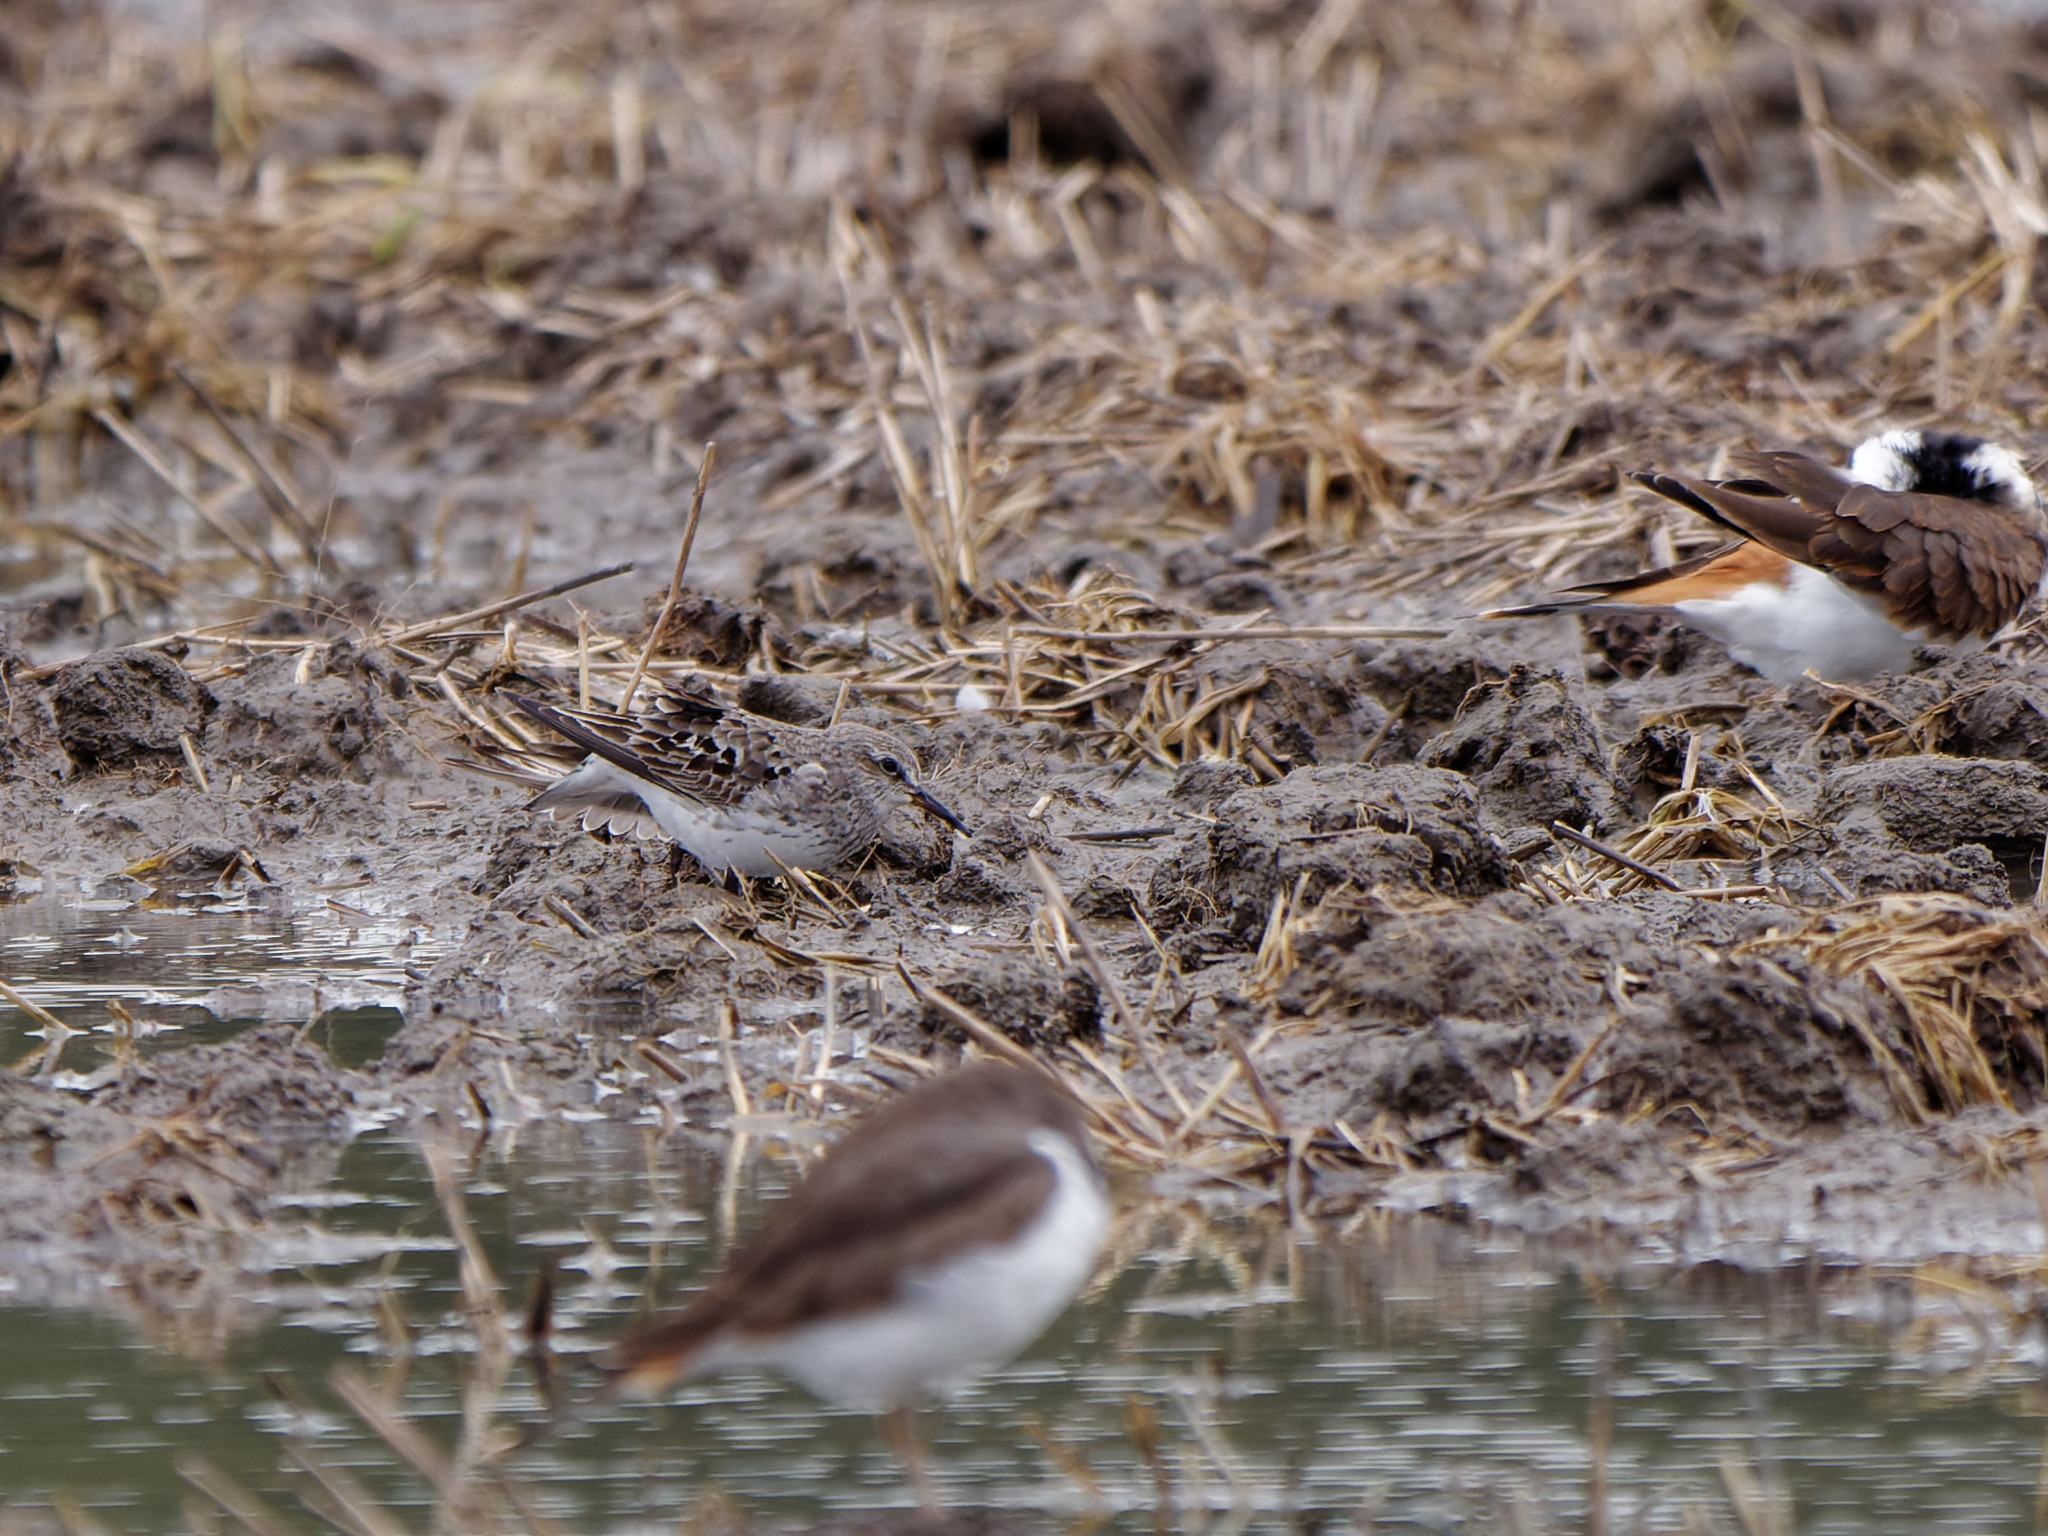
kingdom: Animalia
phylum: Chordata
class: Aves
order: Charadriiformes
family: Scolopacidae
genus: Calidris
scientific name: Calidris fuscicollis
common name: White-rumped sandpiper
